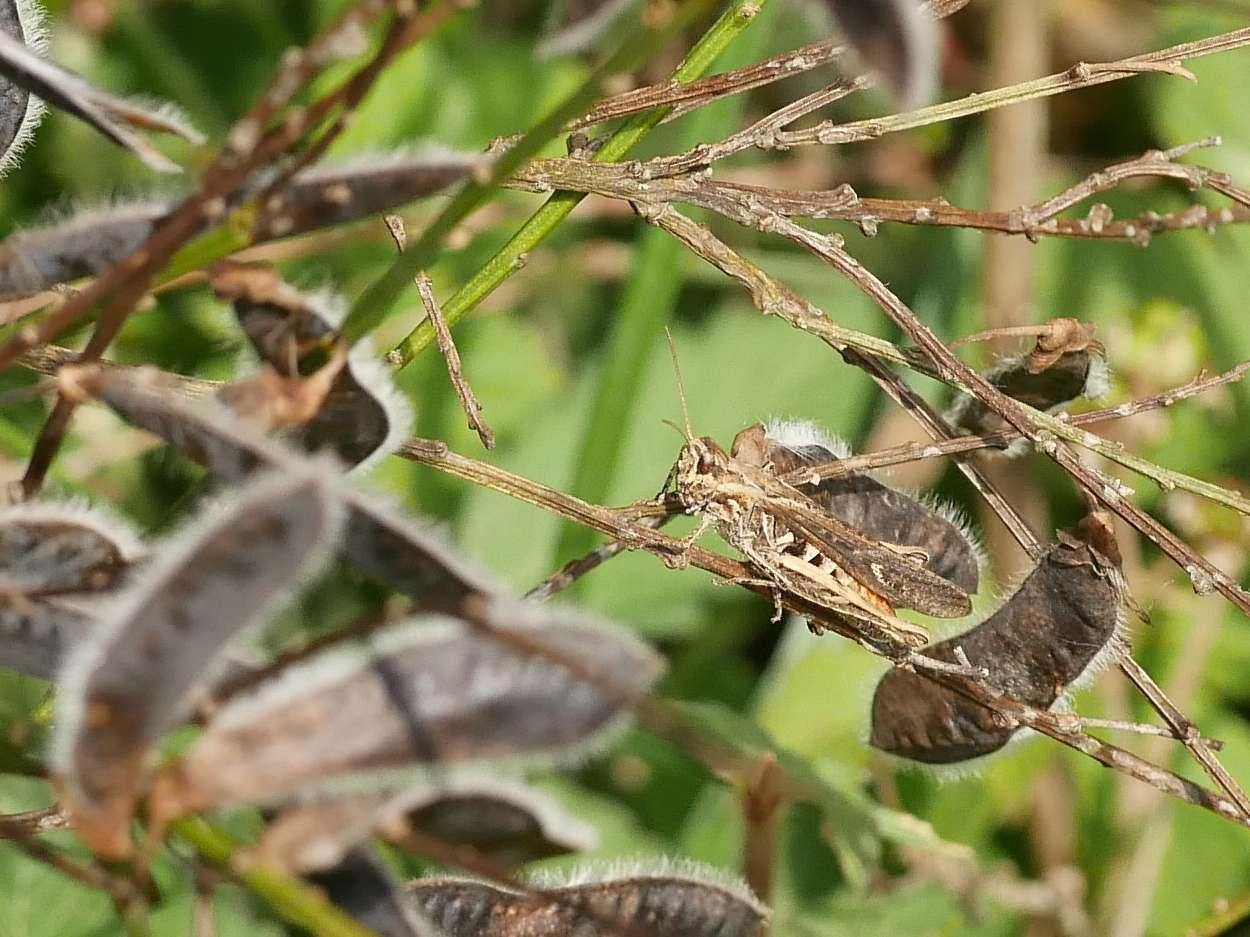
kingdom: Animalia
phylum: Arthropoda
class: Insecta
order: Orthoptera
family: Acrididae
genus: Chorthippus
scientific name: Chorthippus brunneus
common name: Field grasshopper
